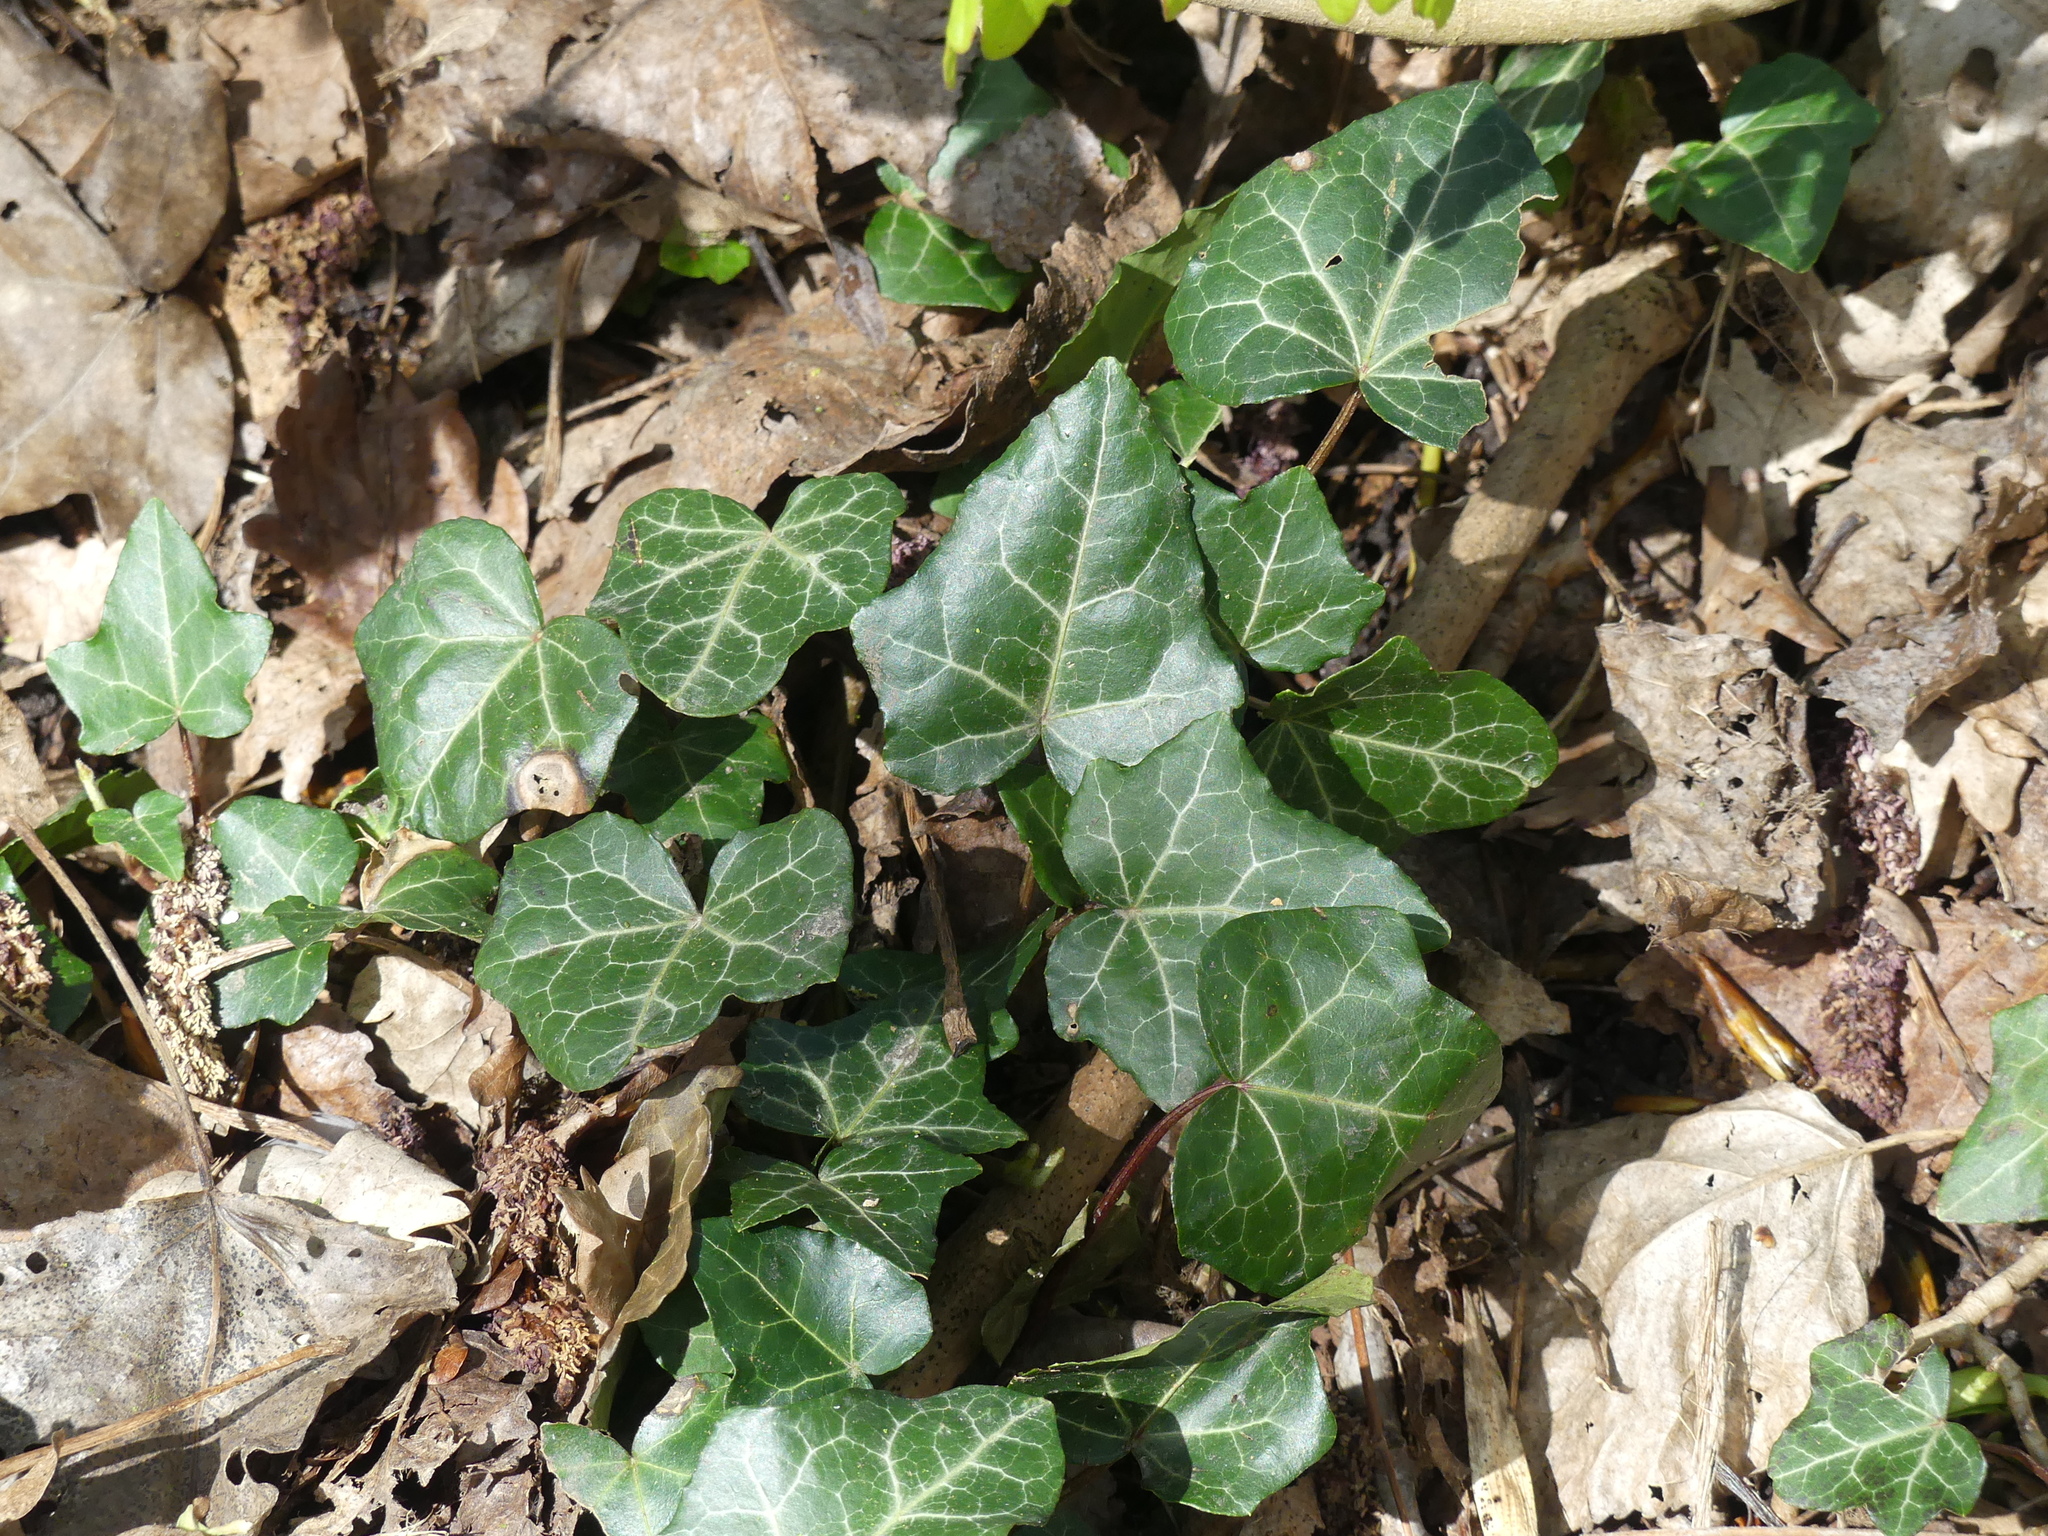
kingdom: Plantae
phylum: Tracheophyta
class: Magnoliopsida
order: Apiales
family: Araliaceae
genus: Hedera
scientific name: Hedera helix
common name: Ivy
